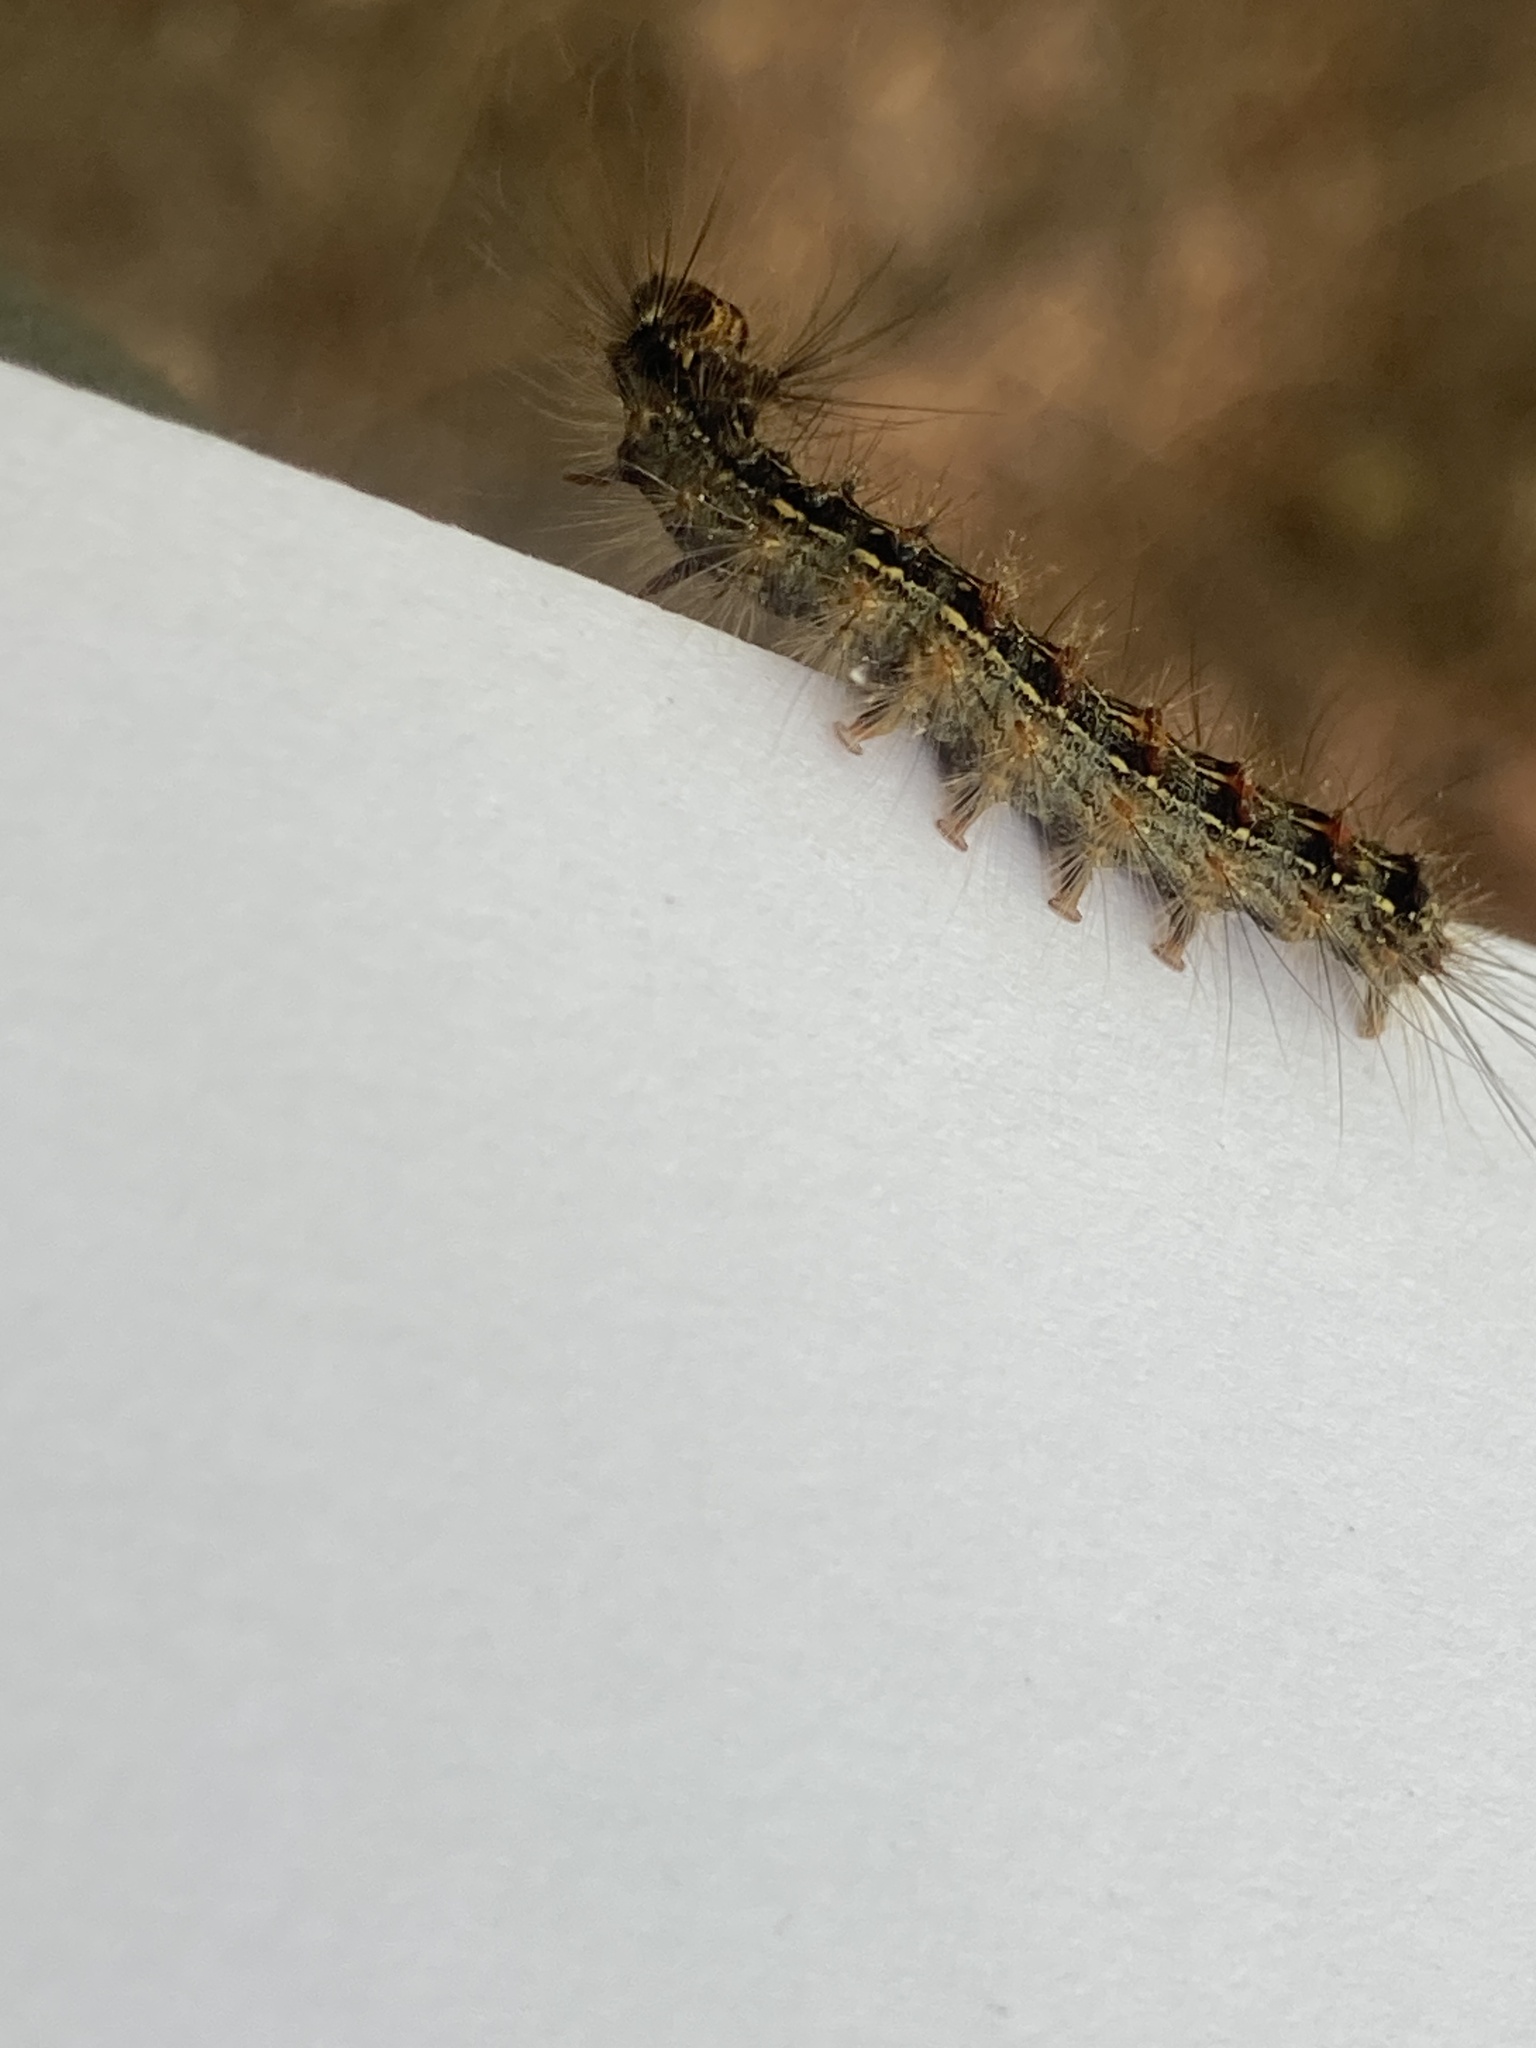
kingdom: Animalia
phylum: Arthropoda
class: Insecta
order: Lepidoptera
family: Erebidae
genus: Lymantria
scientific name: Lymantria dispar
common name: Gypsy moth
